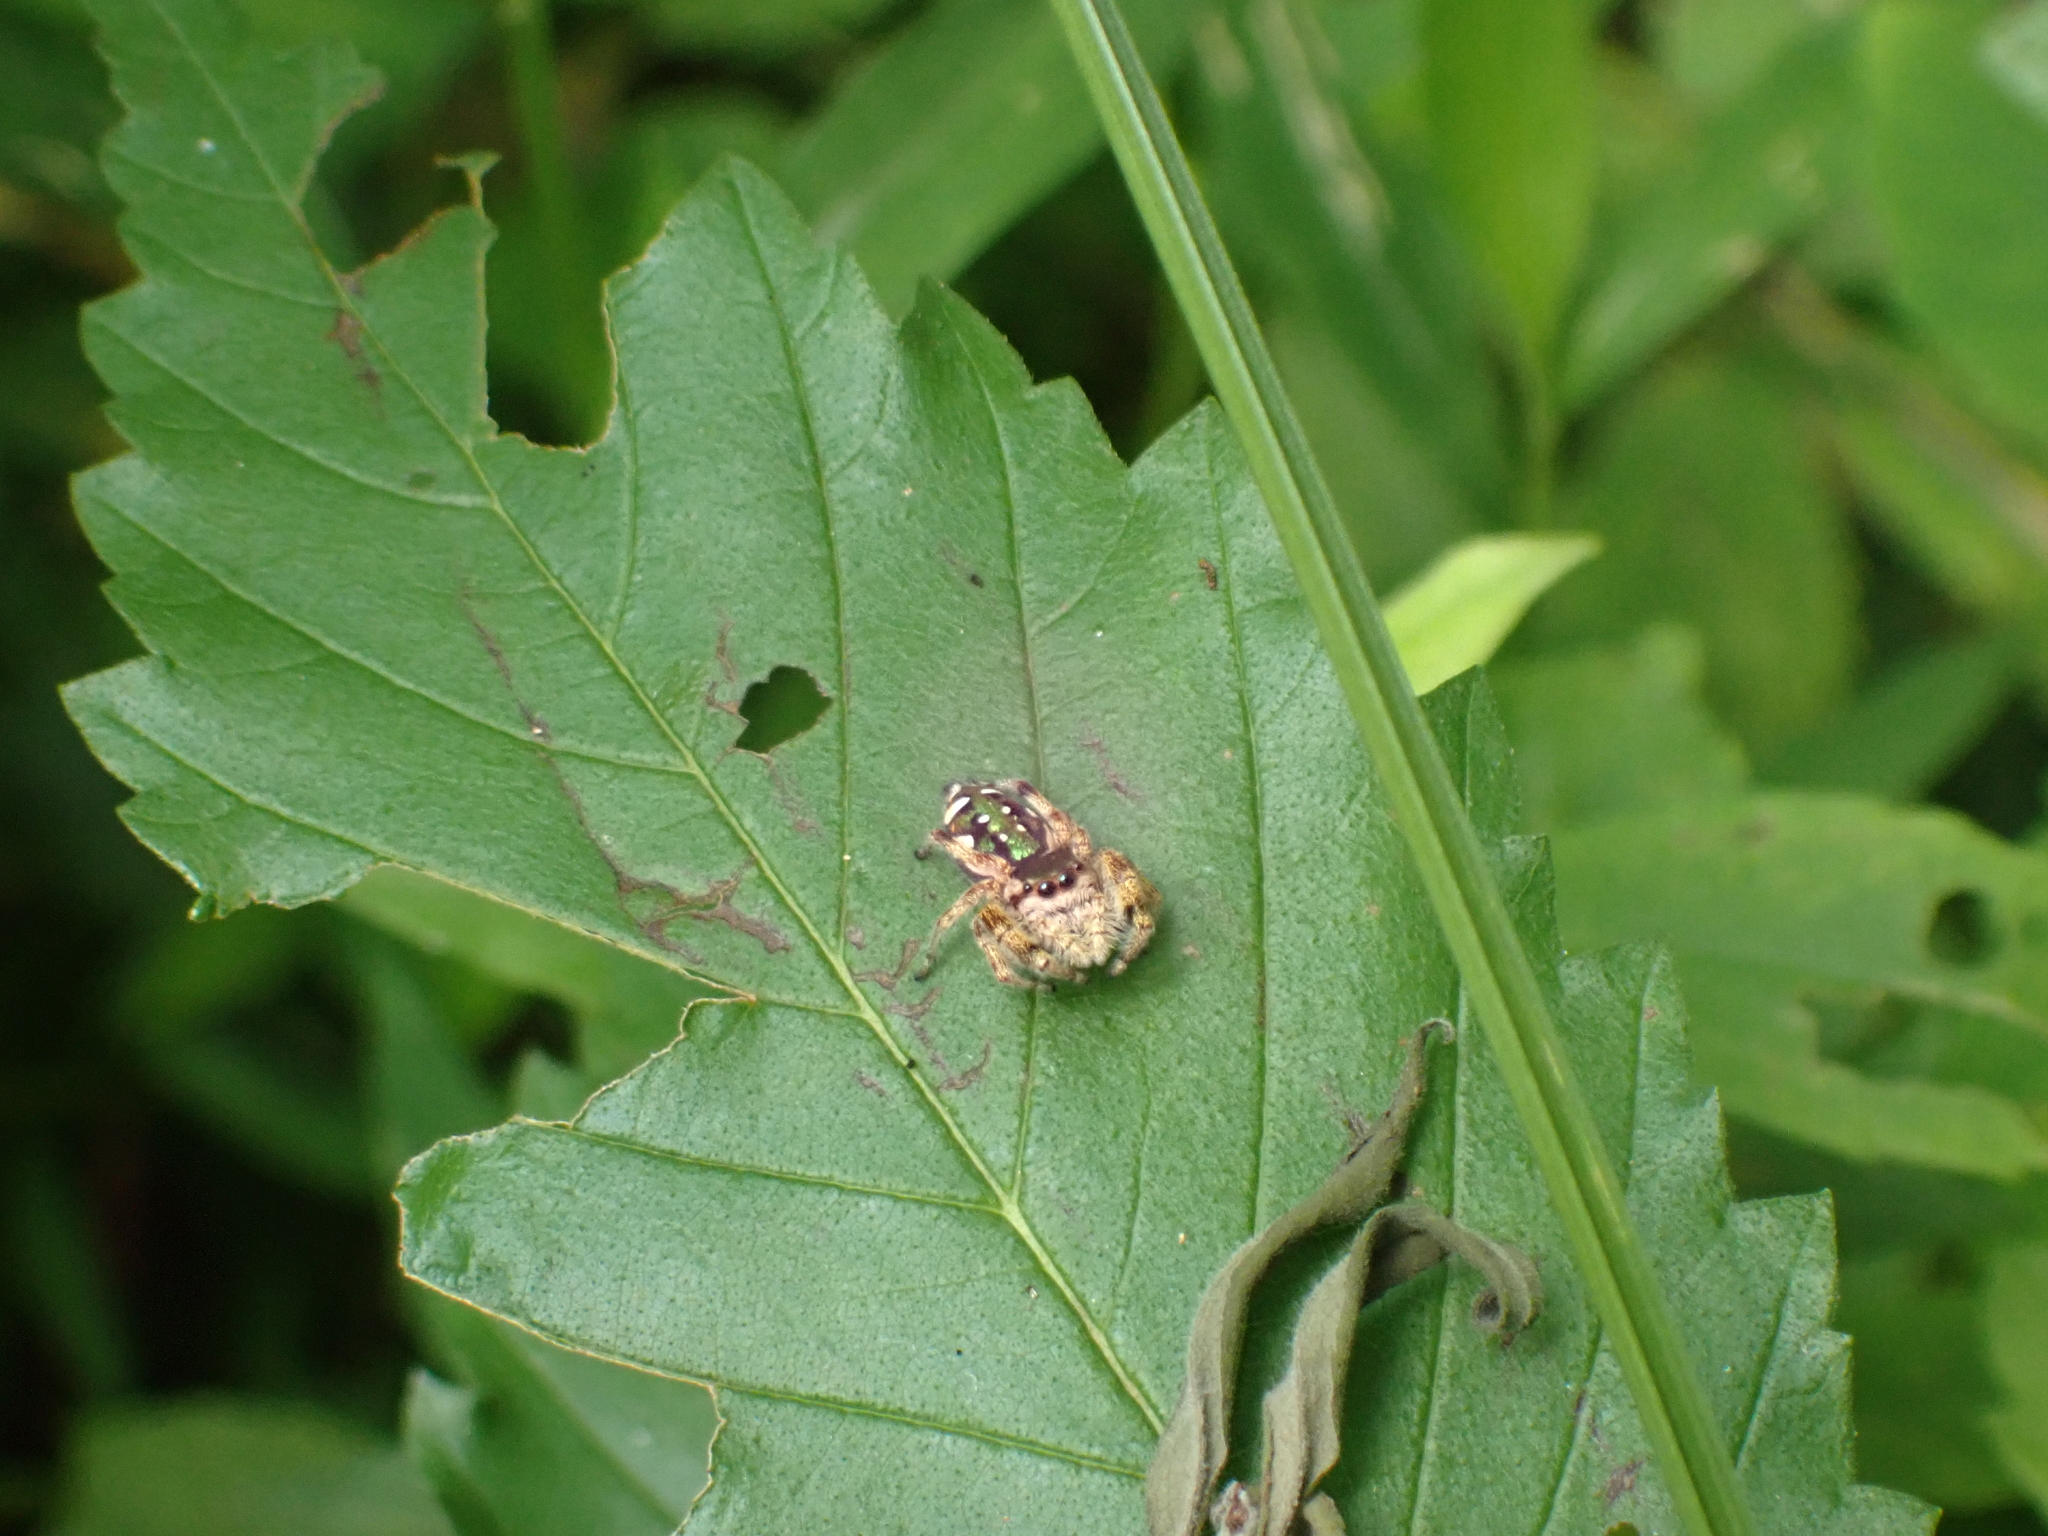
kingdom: Animalia
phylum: Arthropoda
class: Arachnida
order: Araneae
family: Salticidae
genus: Paraphidippus
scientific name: Paraphidippus aurantius
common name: Jumping spiders
